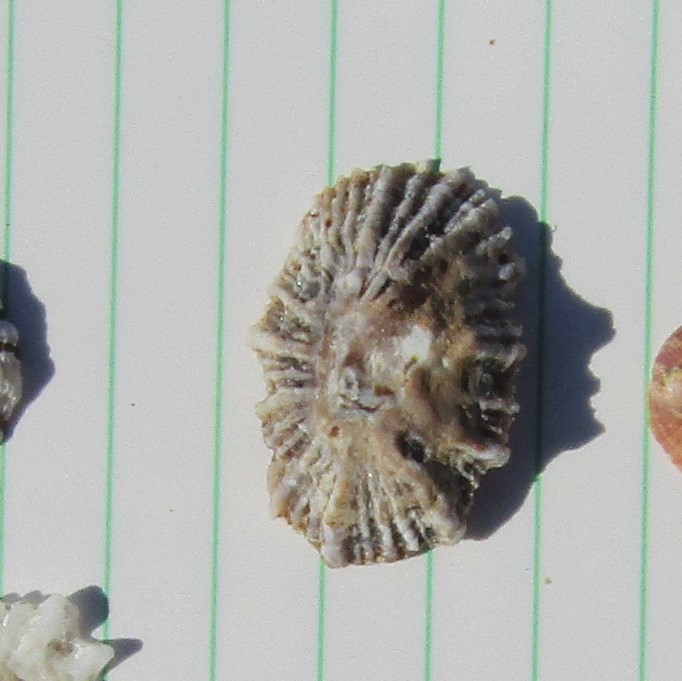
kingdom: Animalia
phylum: Mollusca
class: Gastropoda
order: Siphonariida
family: Siphonariidae
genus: Siphonaria
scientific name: Siphonaria australis
